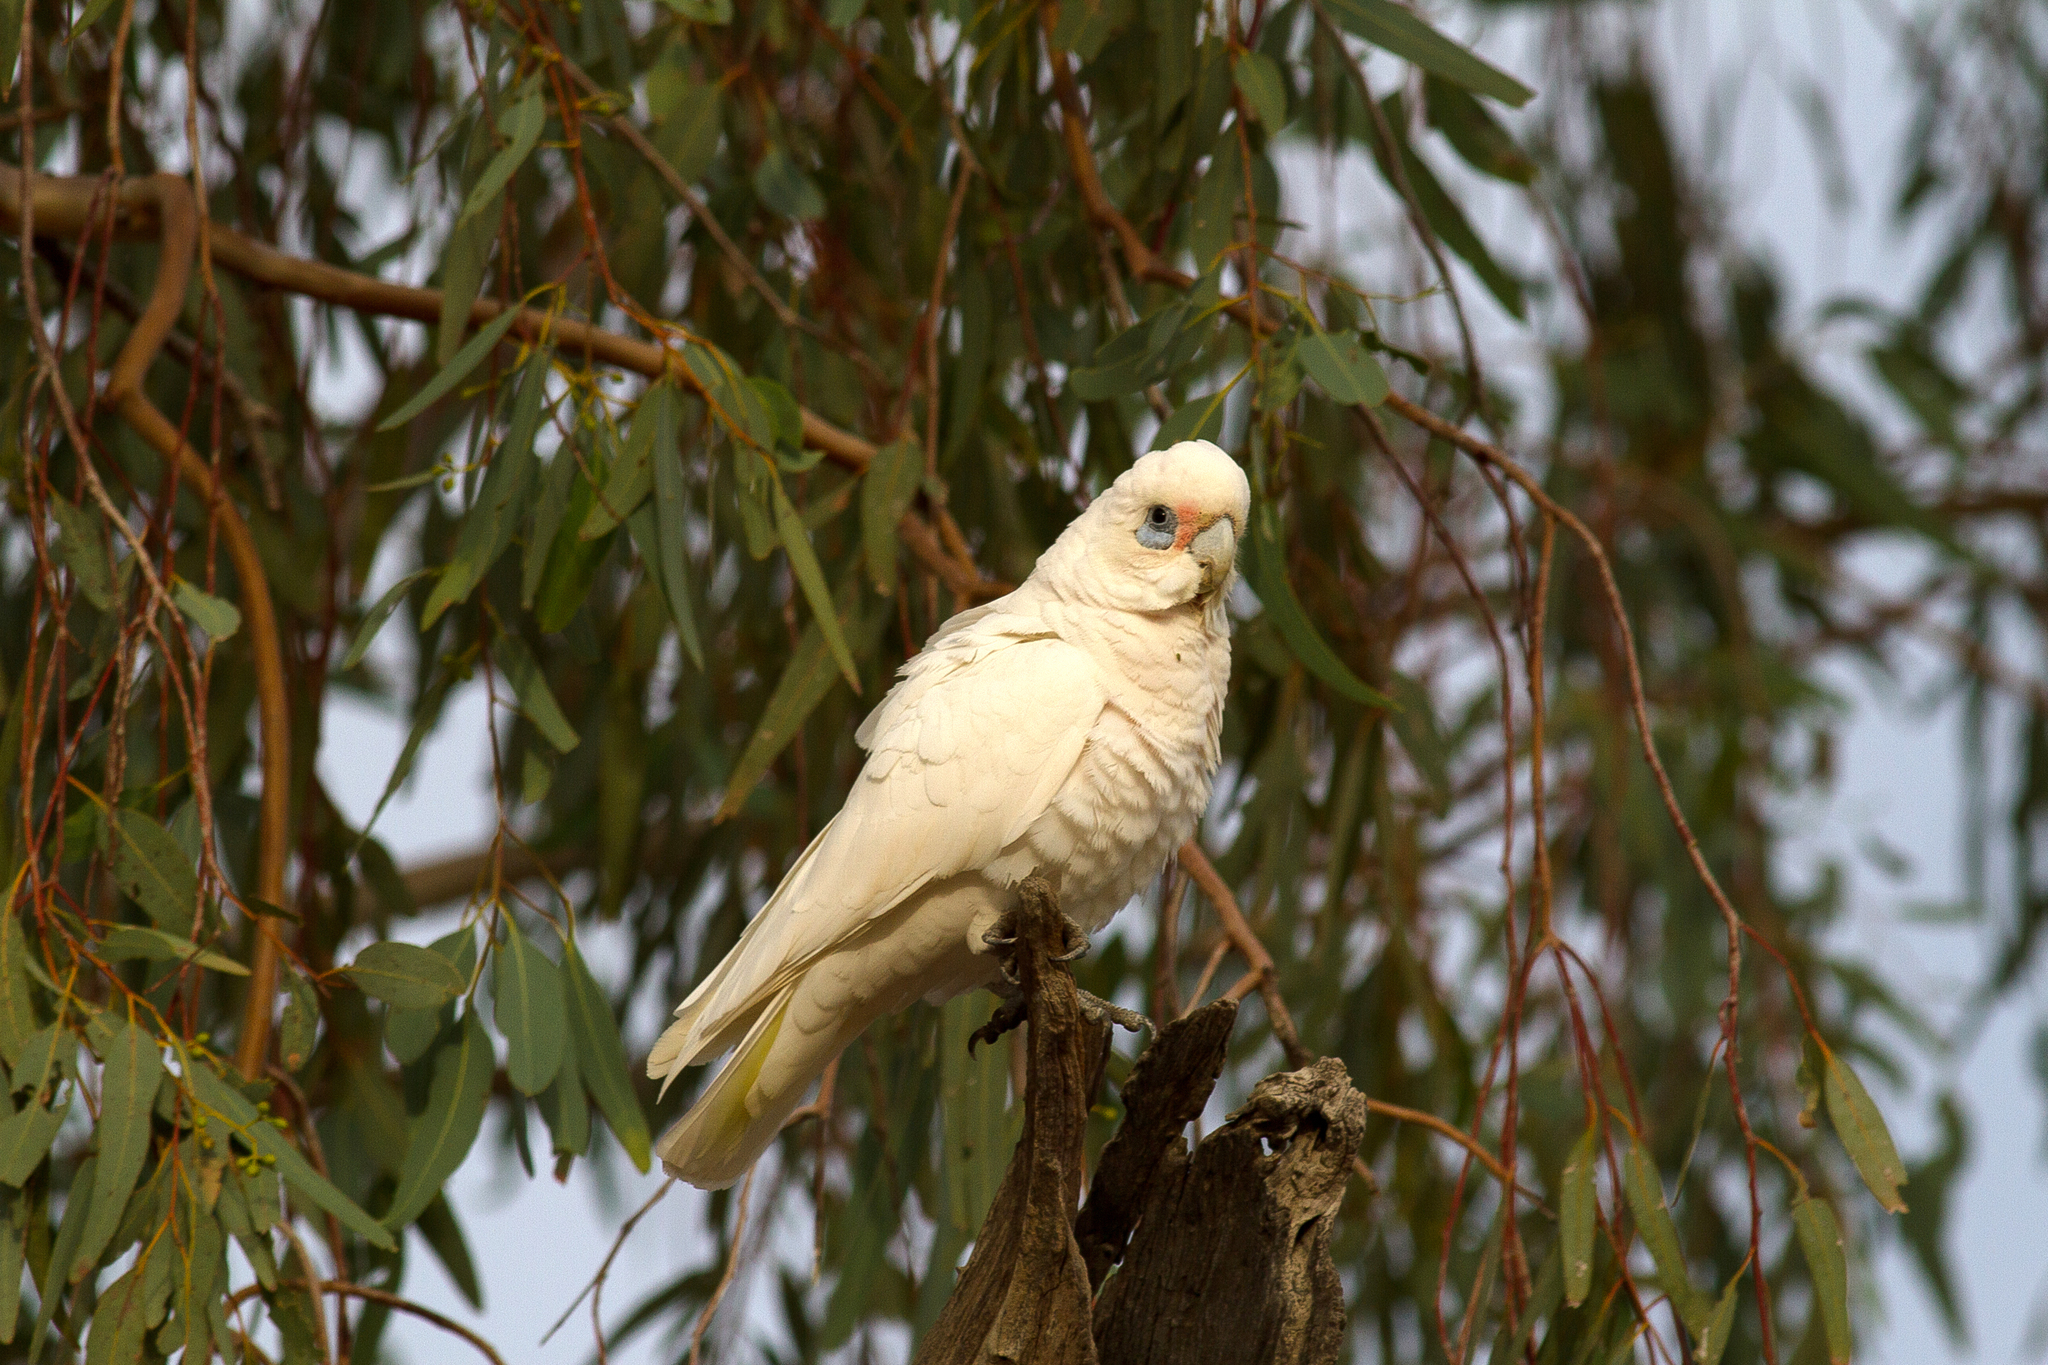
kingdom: Animalia
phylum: Chordata
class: Aves
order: Psittaciformes
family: Psittacidae
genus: Cacatua
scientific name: Cacatua sanguinea
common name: Little corella
